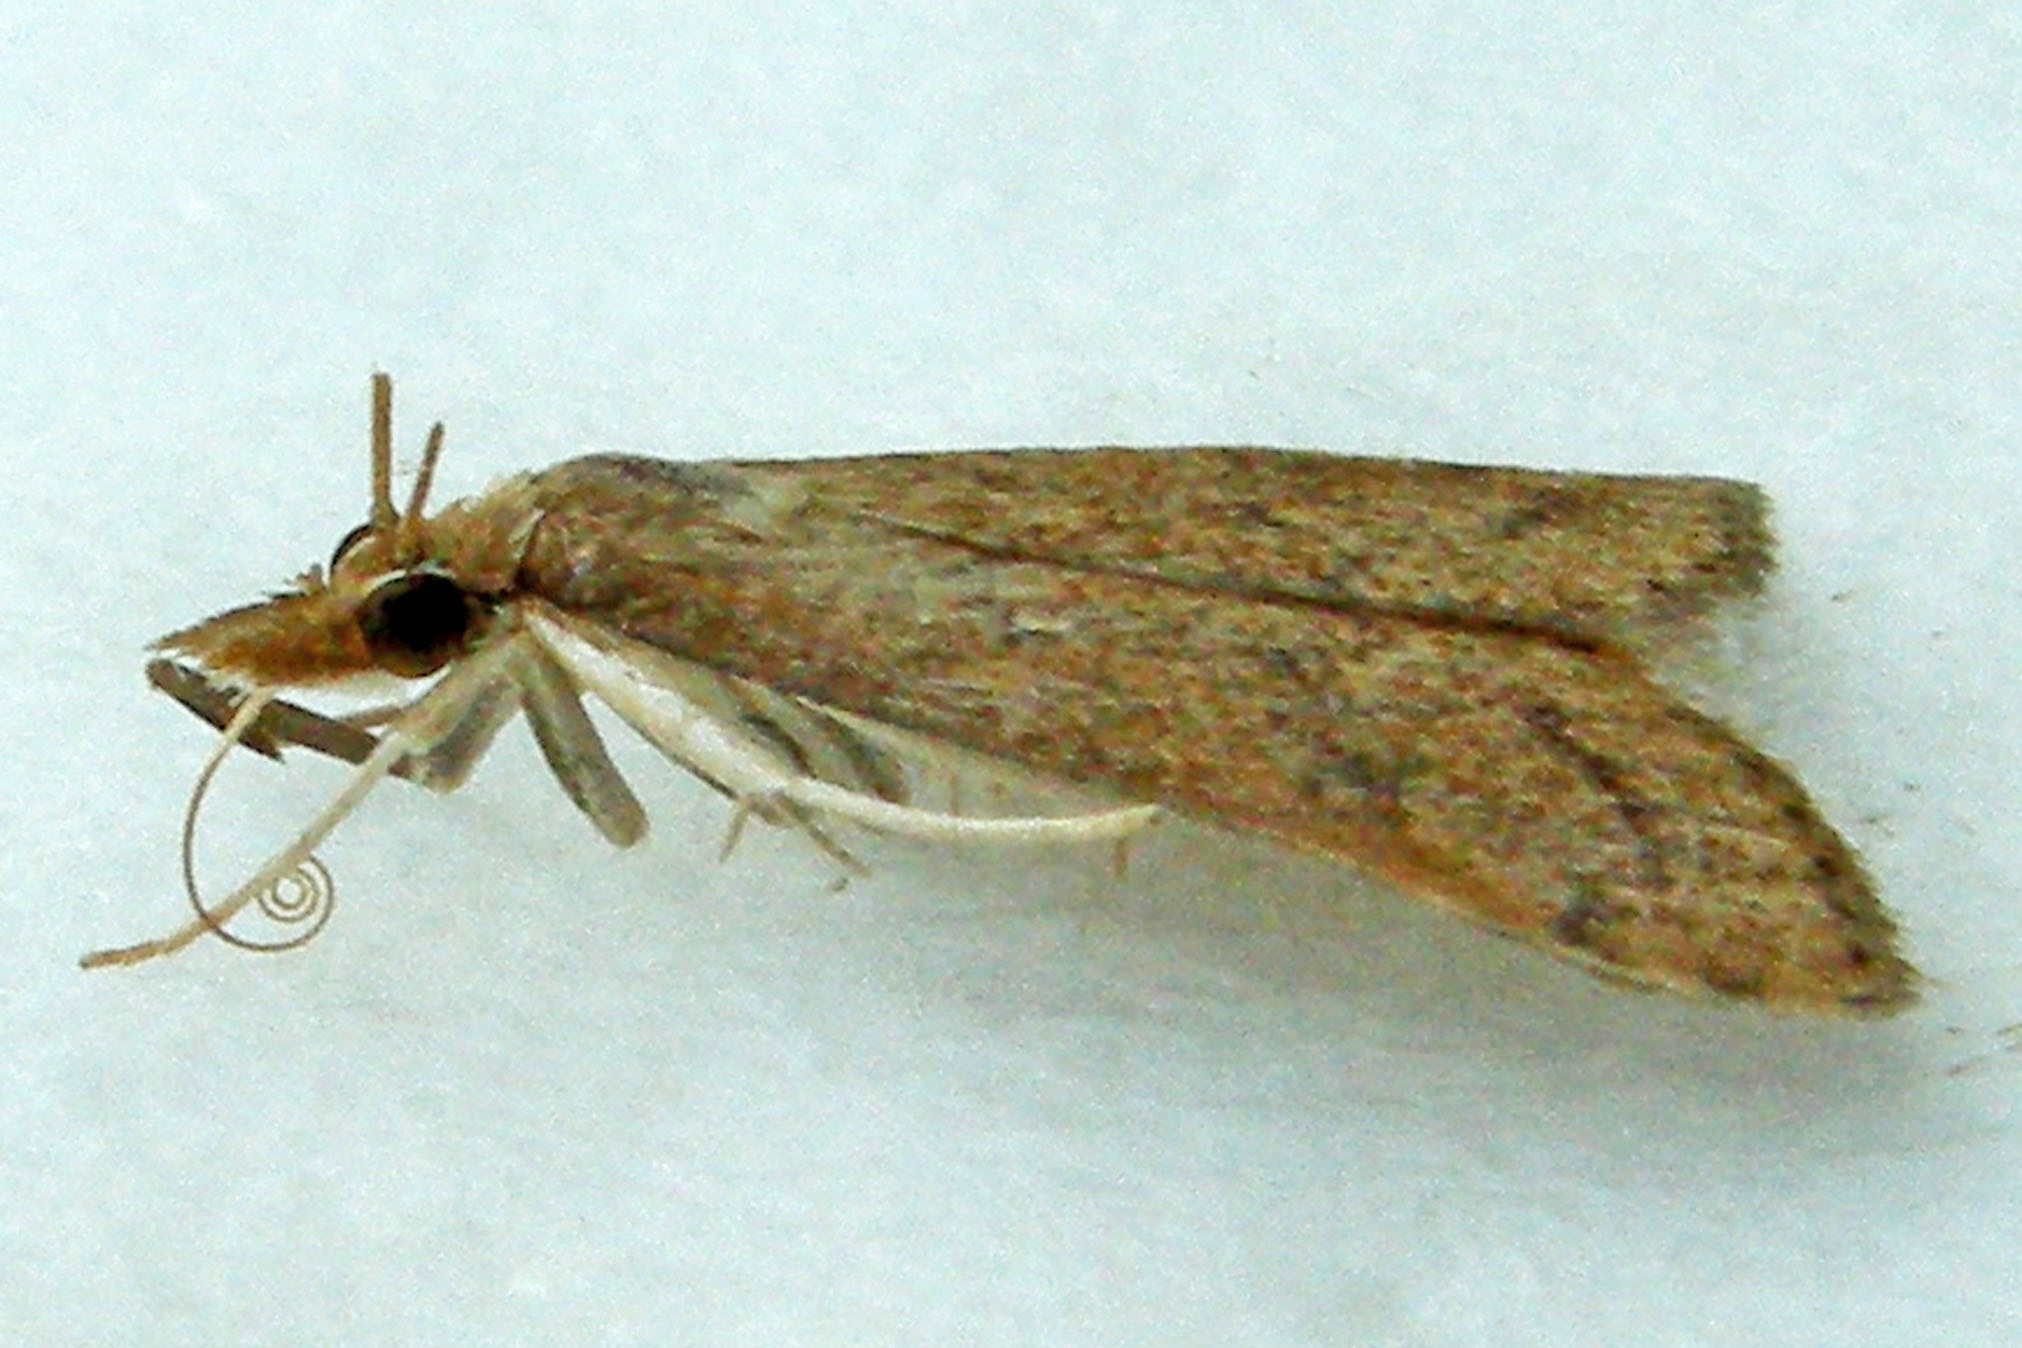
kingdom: Animalia
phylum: Arthropoda
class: Insecta
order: Lepidoptera
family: Crambidae
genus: Udea
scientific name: Udea rubigalis
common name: Celery leaftier moth
